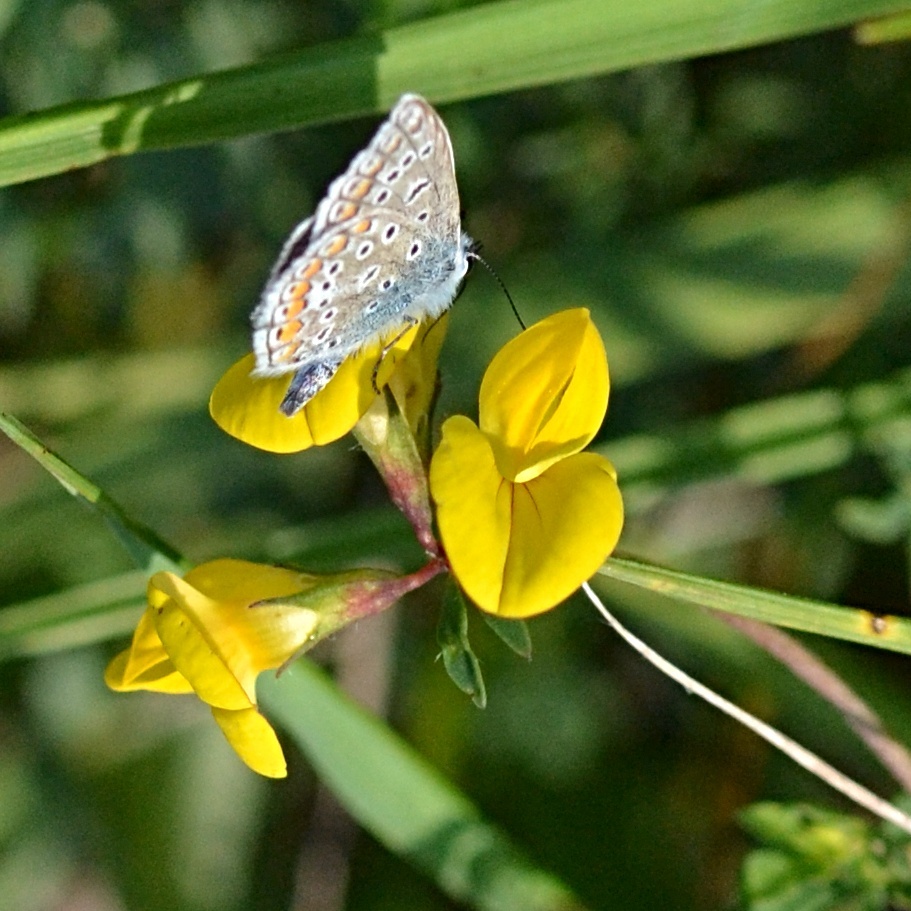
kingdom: Animalia
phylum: Arthropoda
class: Insecta
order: Lepidoptera
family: Lycaenidae
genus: Polyommatus
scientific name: Polyommatus icarus
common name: Common blue
